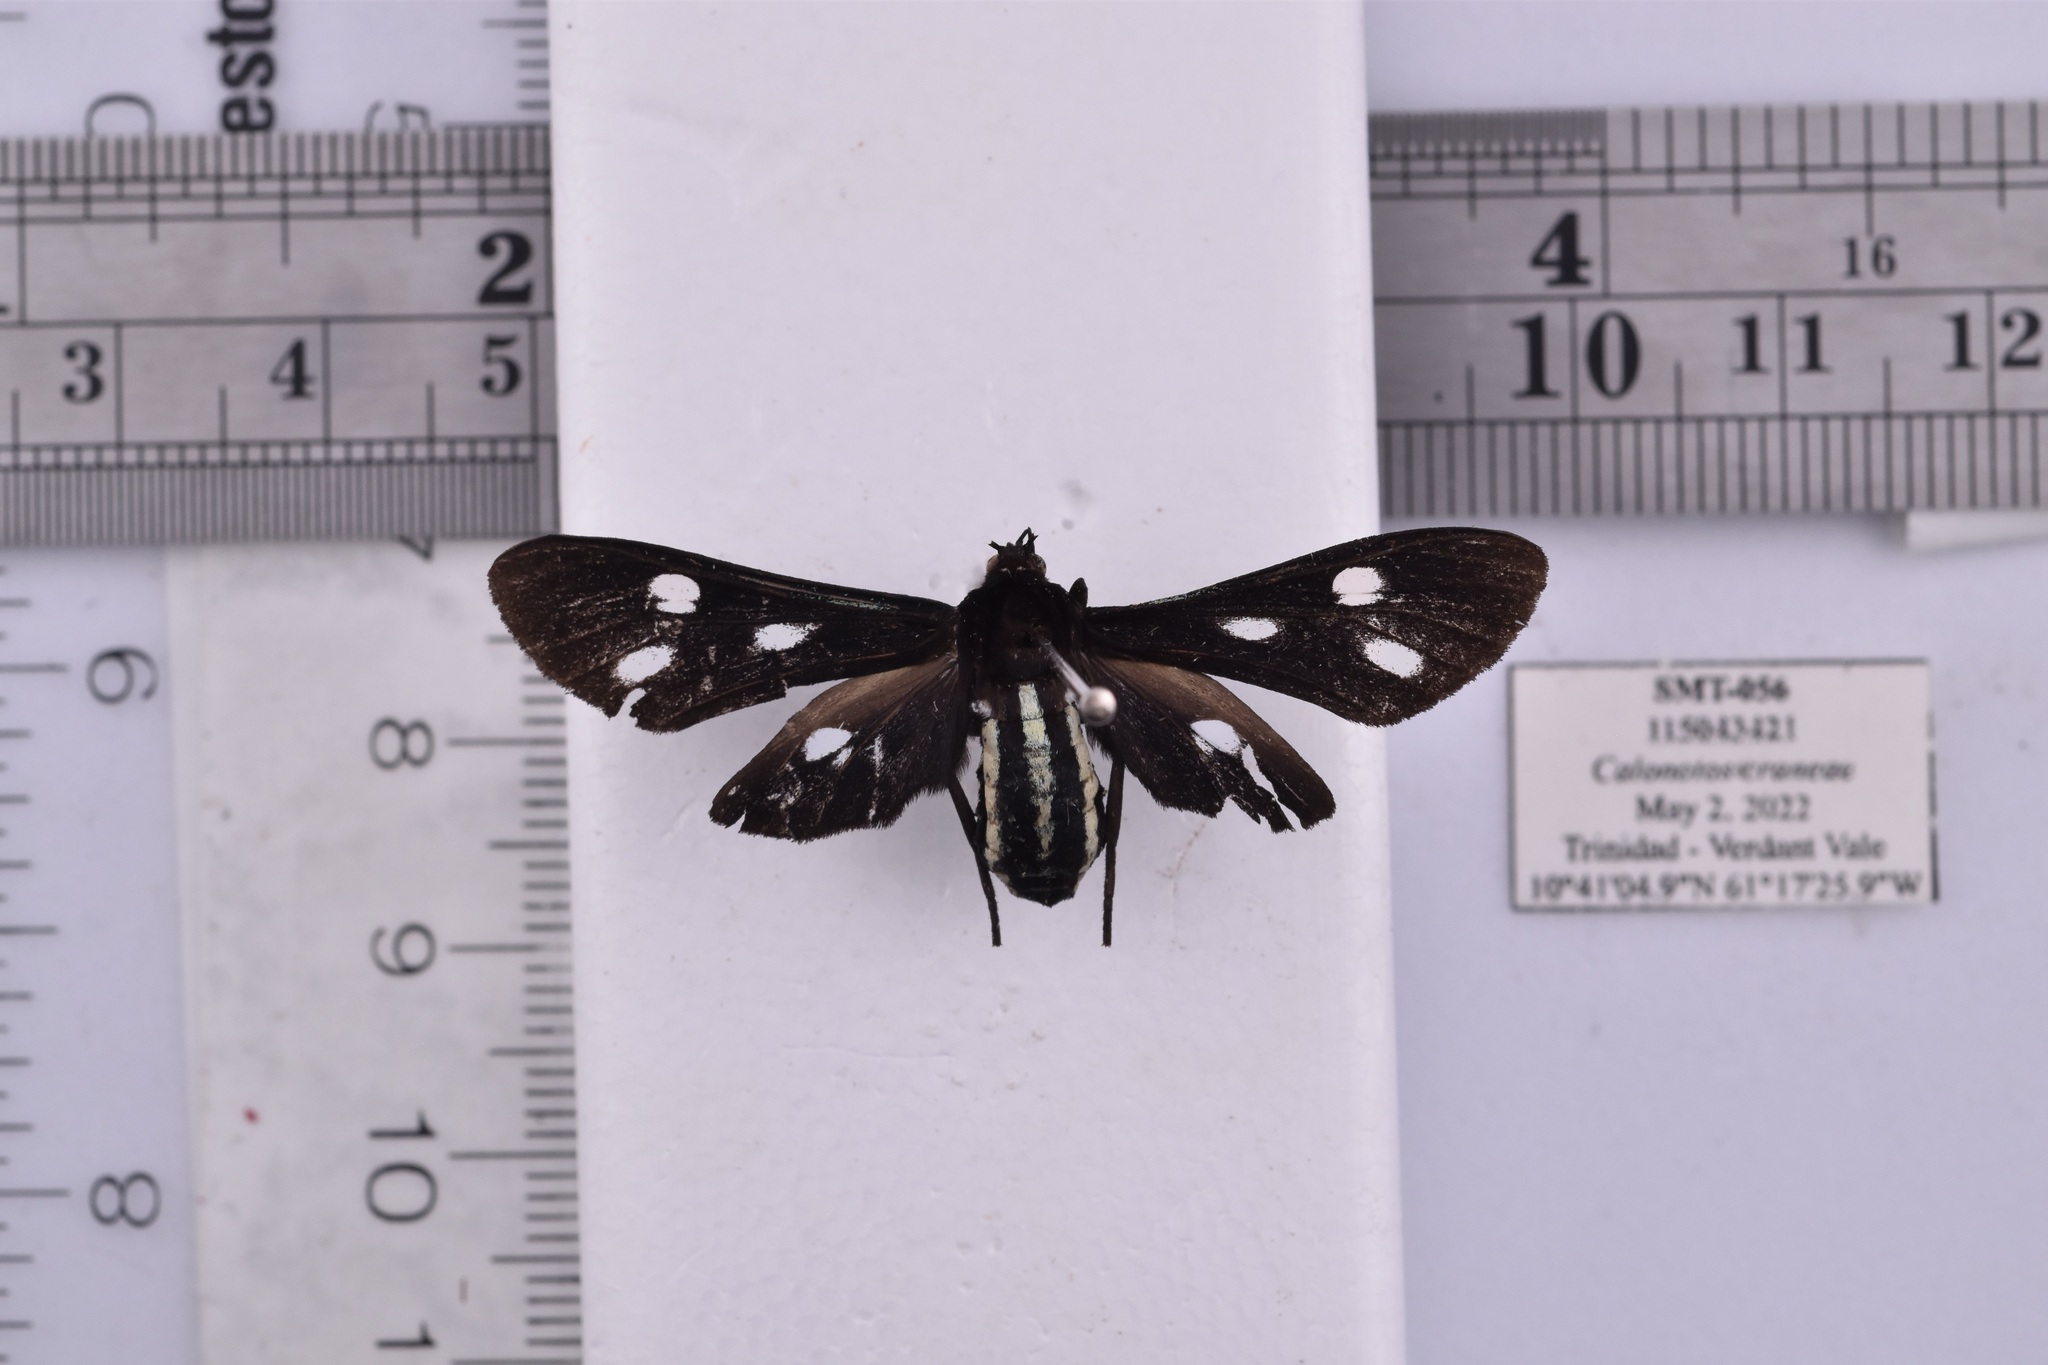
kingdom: Animalia
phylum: Arthropoda
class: Insecta
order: Lepidoptera
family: Erebidae
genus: Calonotos
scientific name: Calonotos craneae
